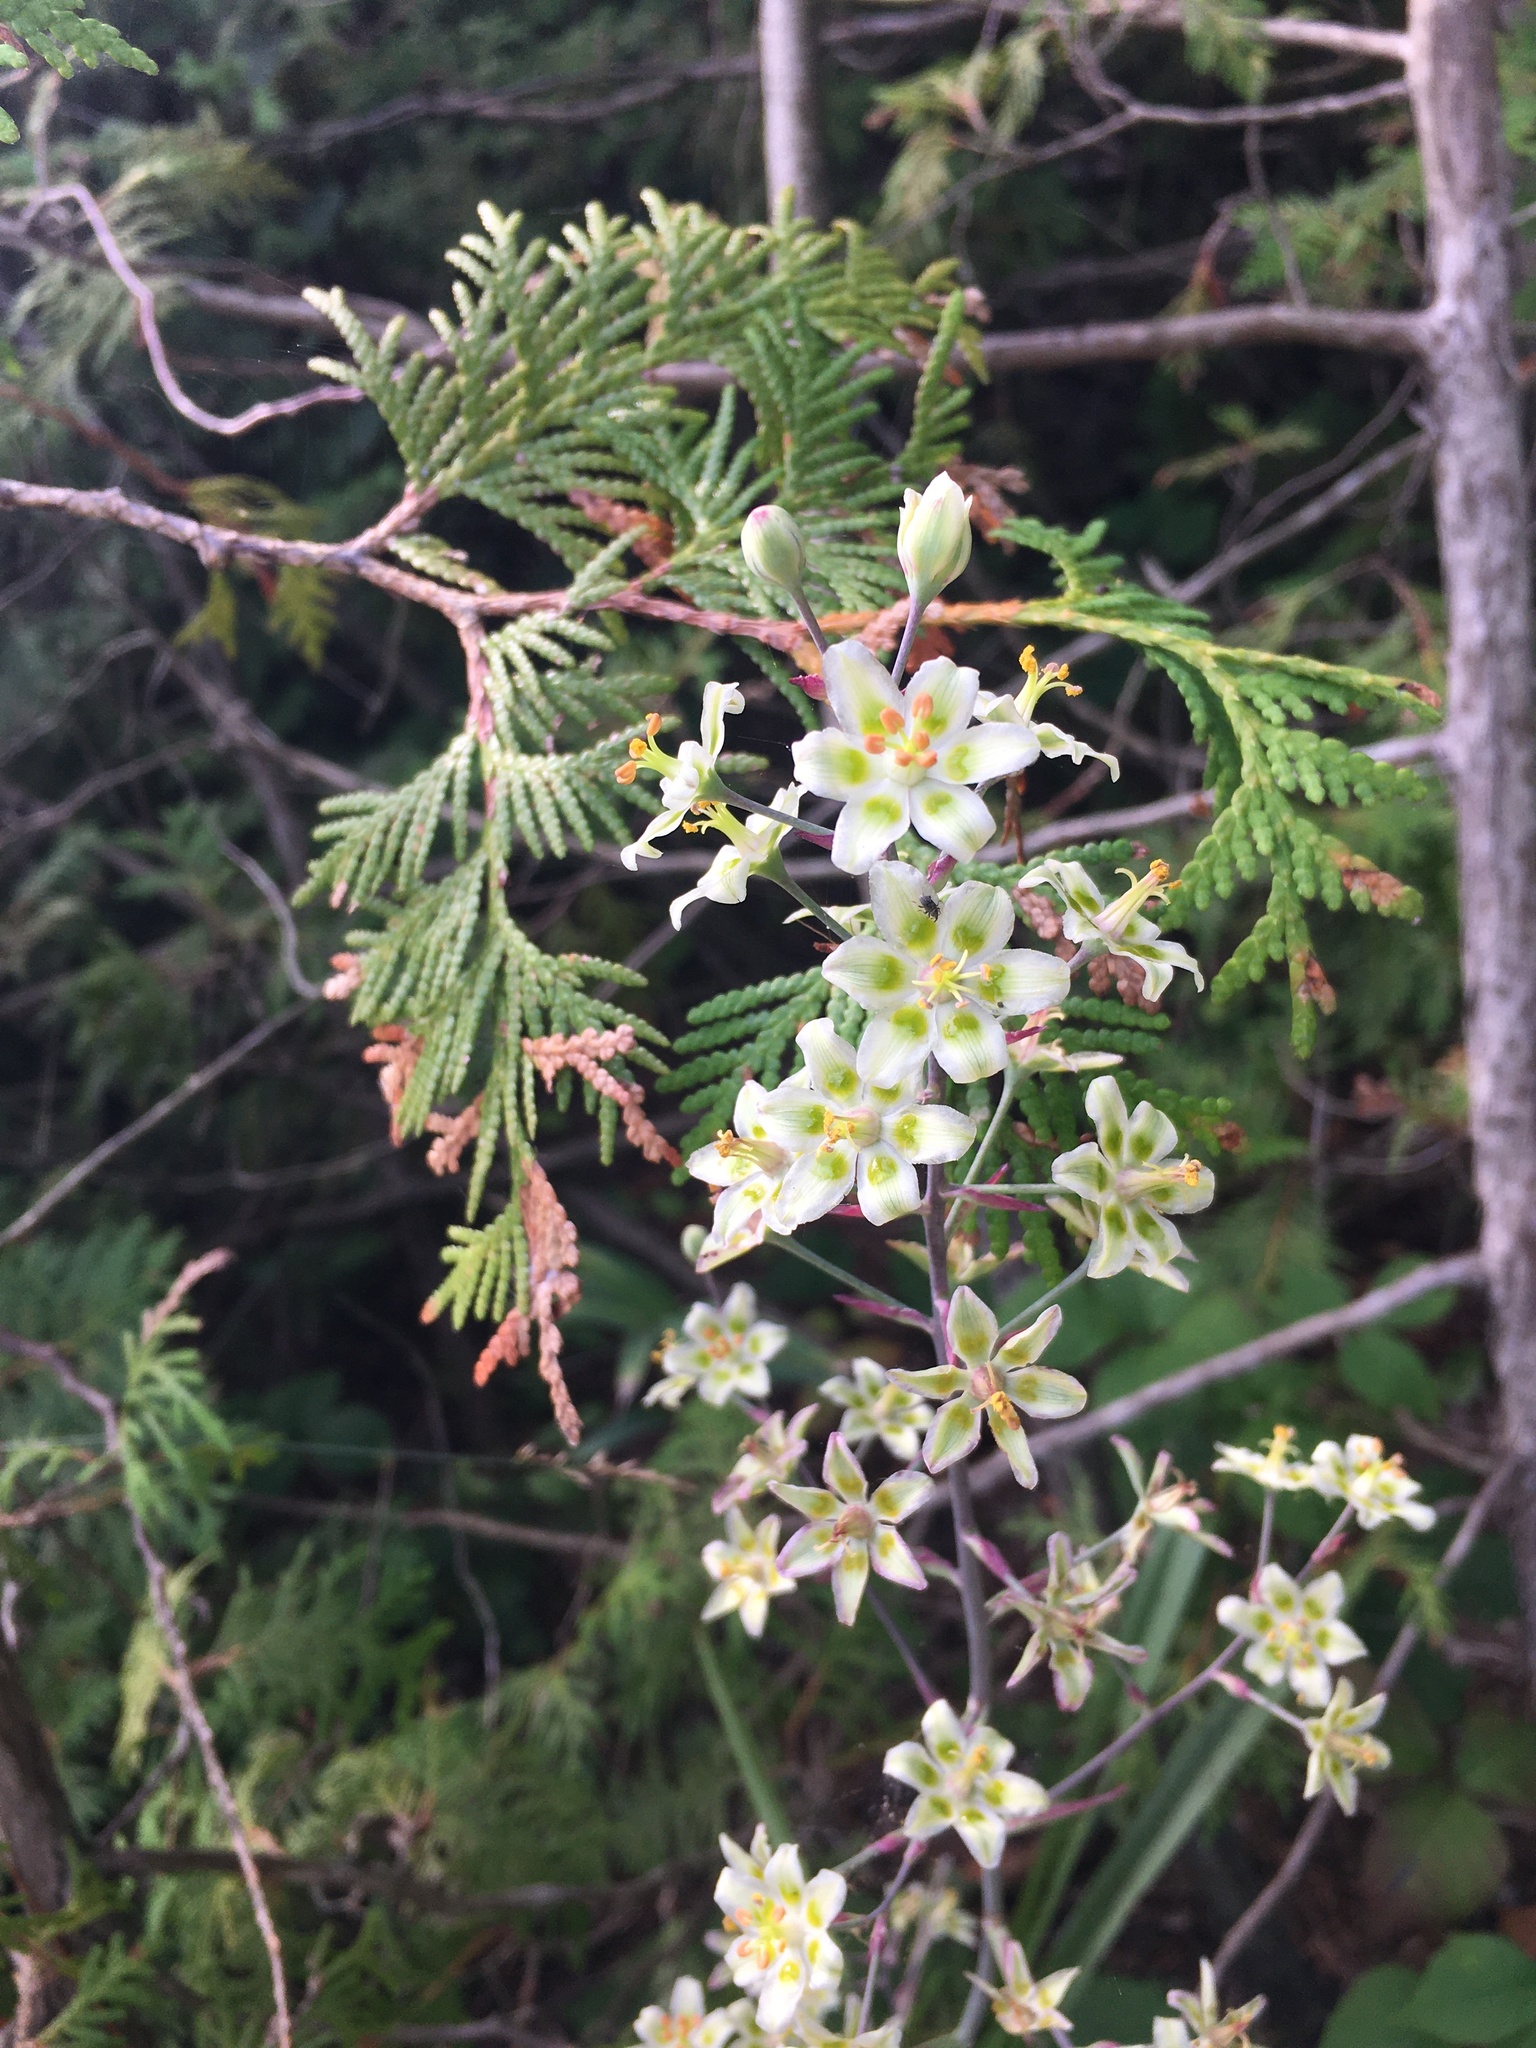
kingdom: Plantae
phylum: Tracheophyta
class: Liliopsida
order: Liliales
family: Melanthiaceae
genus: Anticlea
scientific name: Anticlea elegans
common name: Mountain death camas
